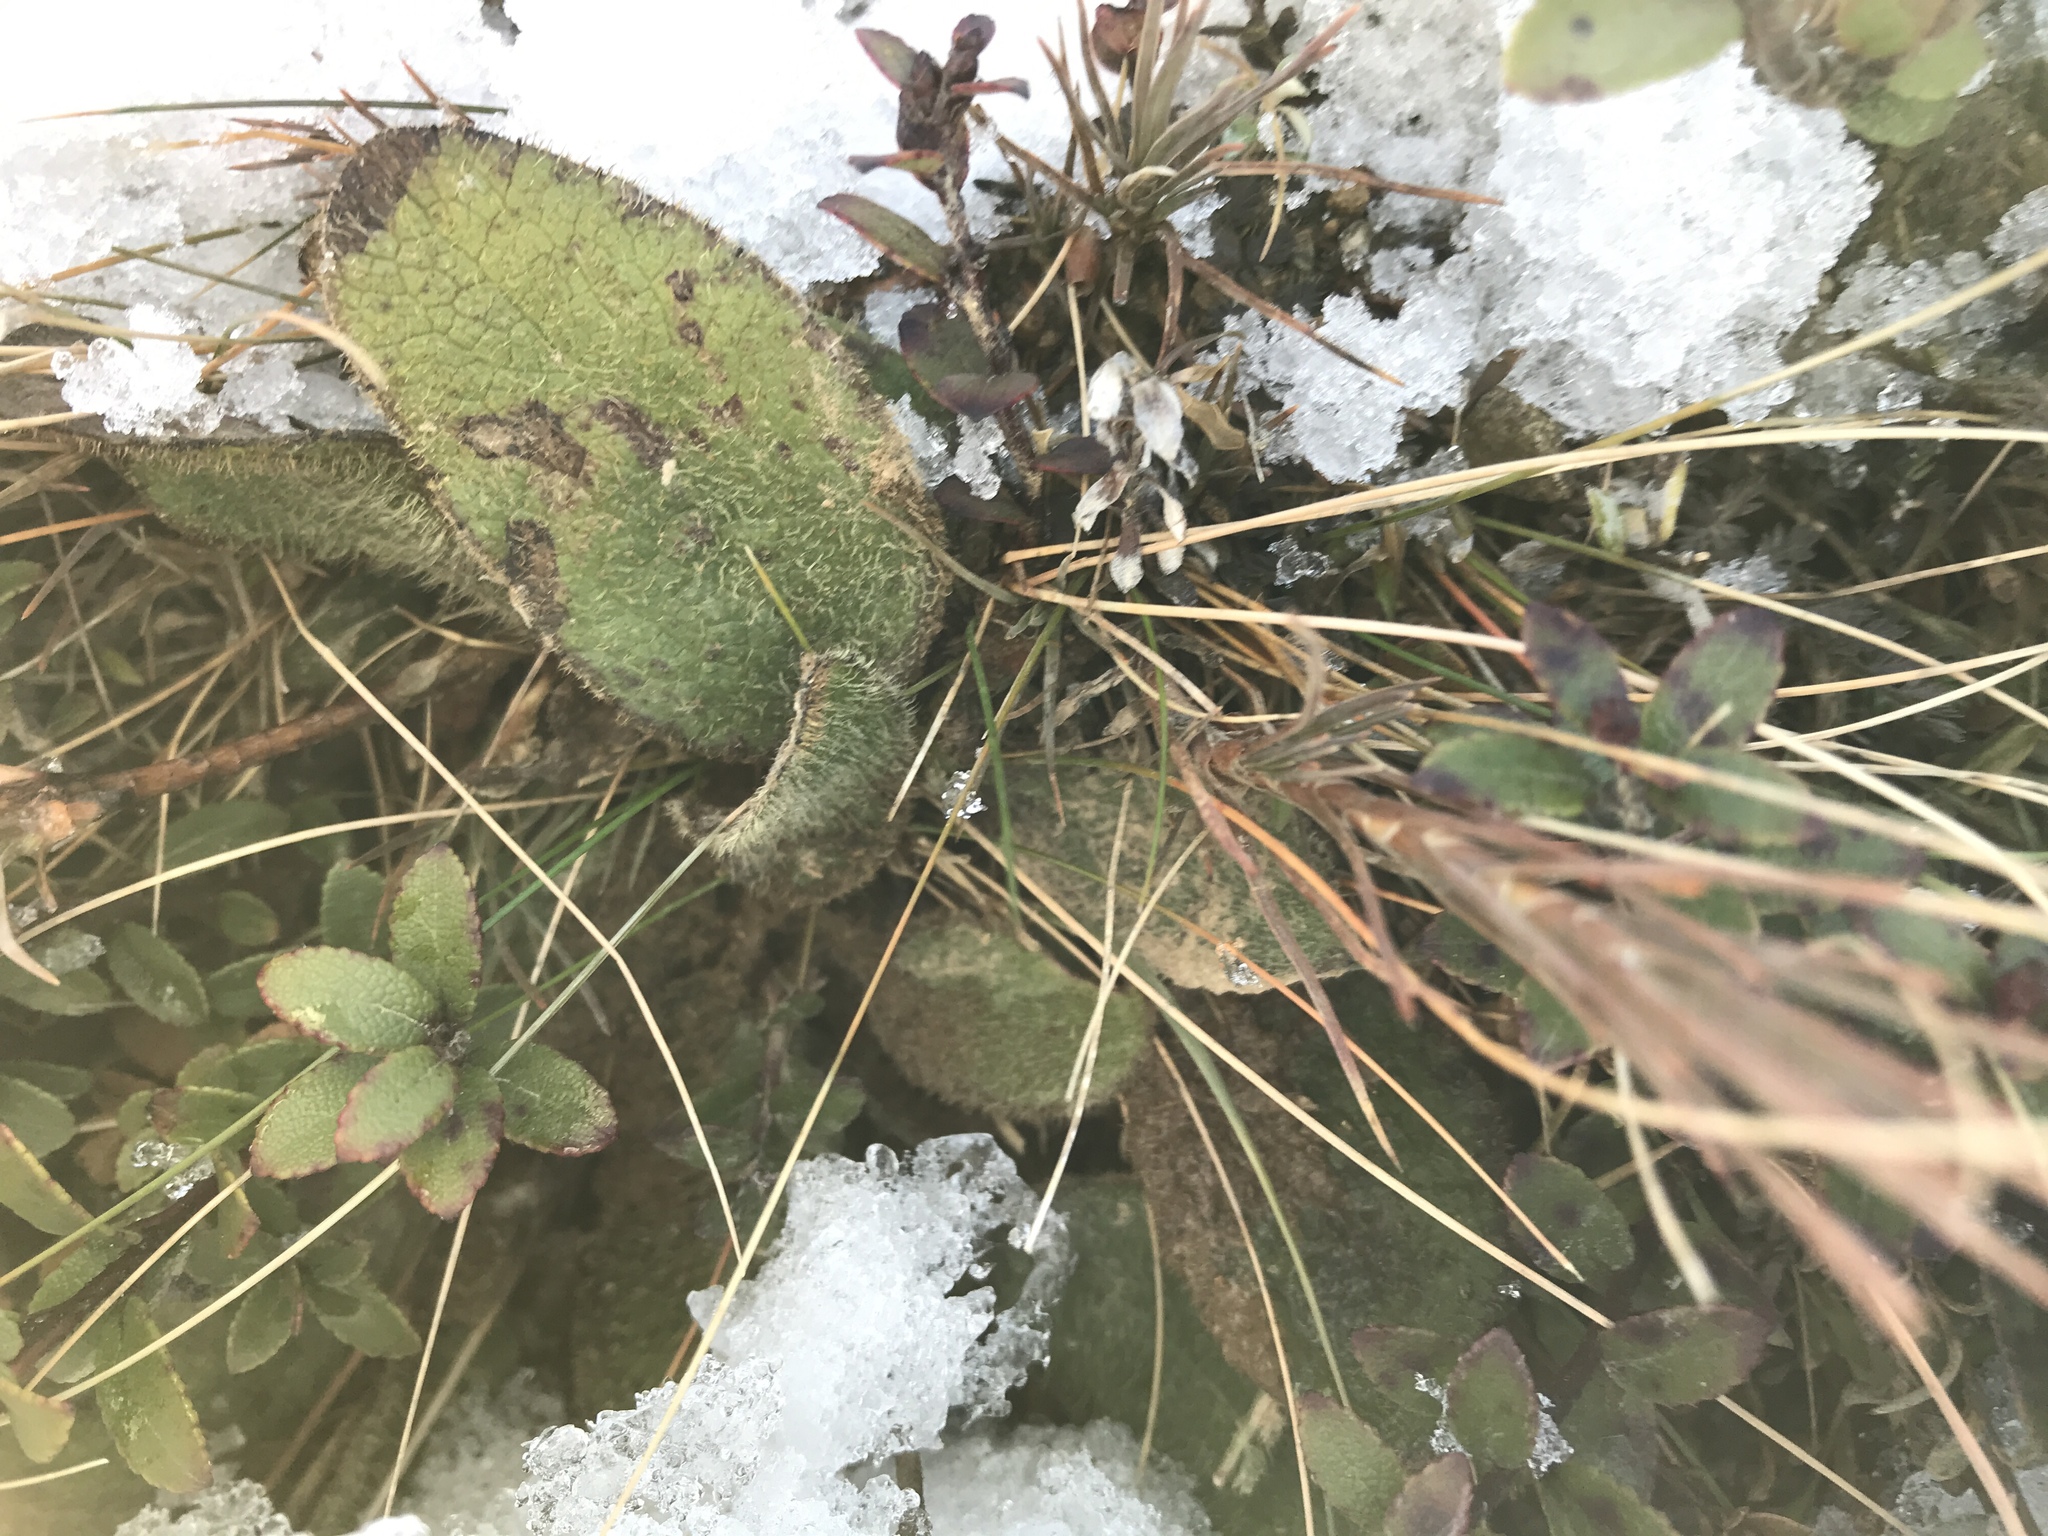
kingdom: Plantae
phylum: Tracheophyta
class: Magnoliopsida
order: Asterales
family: Asteraceae
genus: Brachyglottis
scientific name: Brachyglottis lagopus
